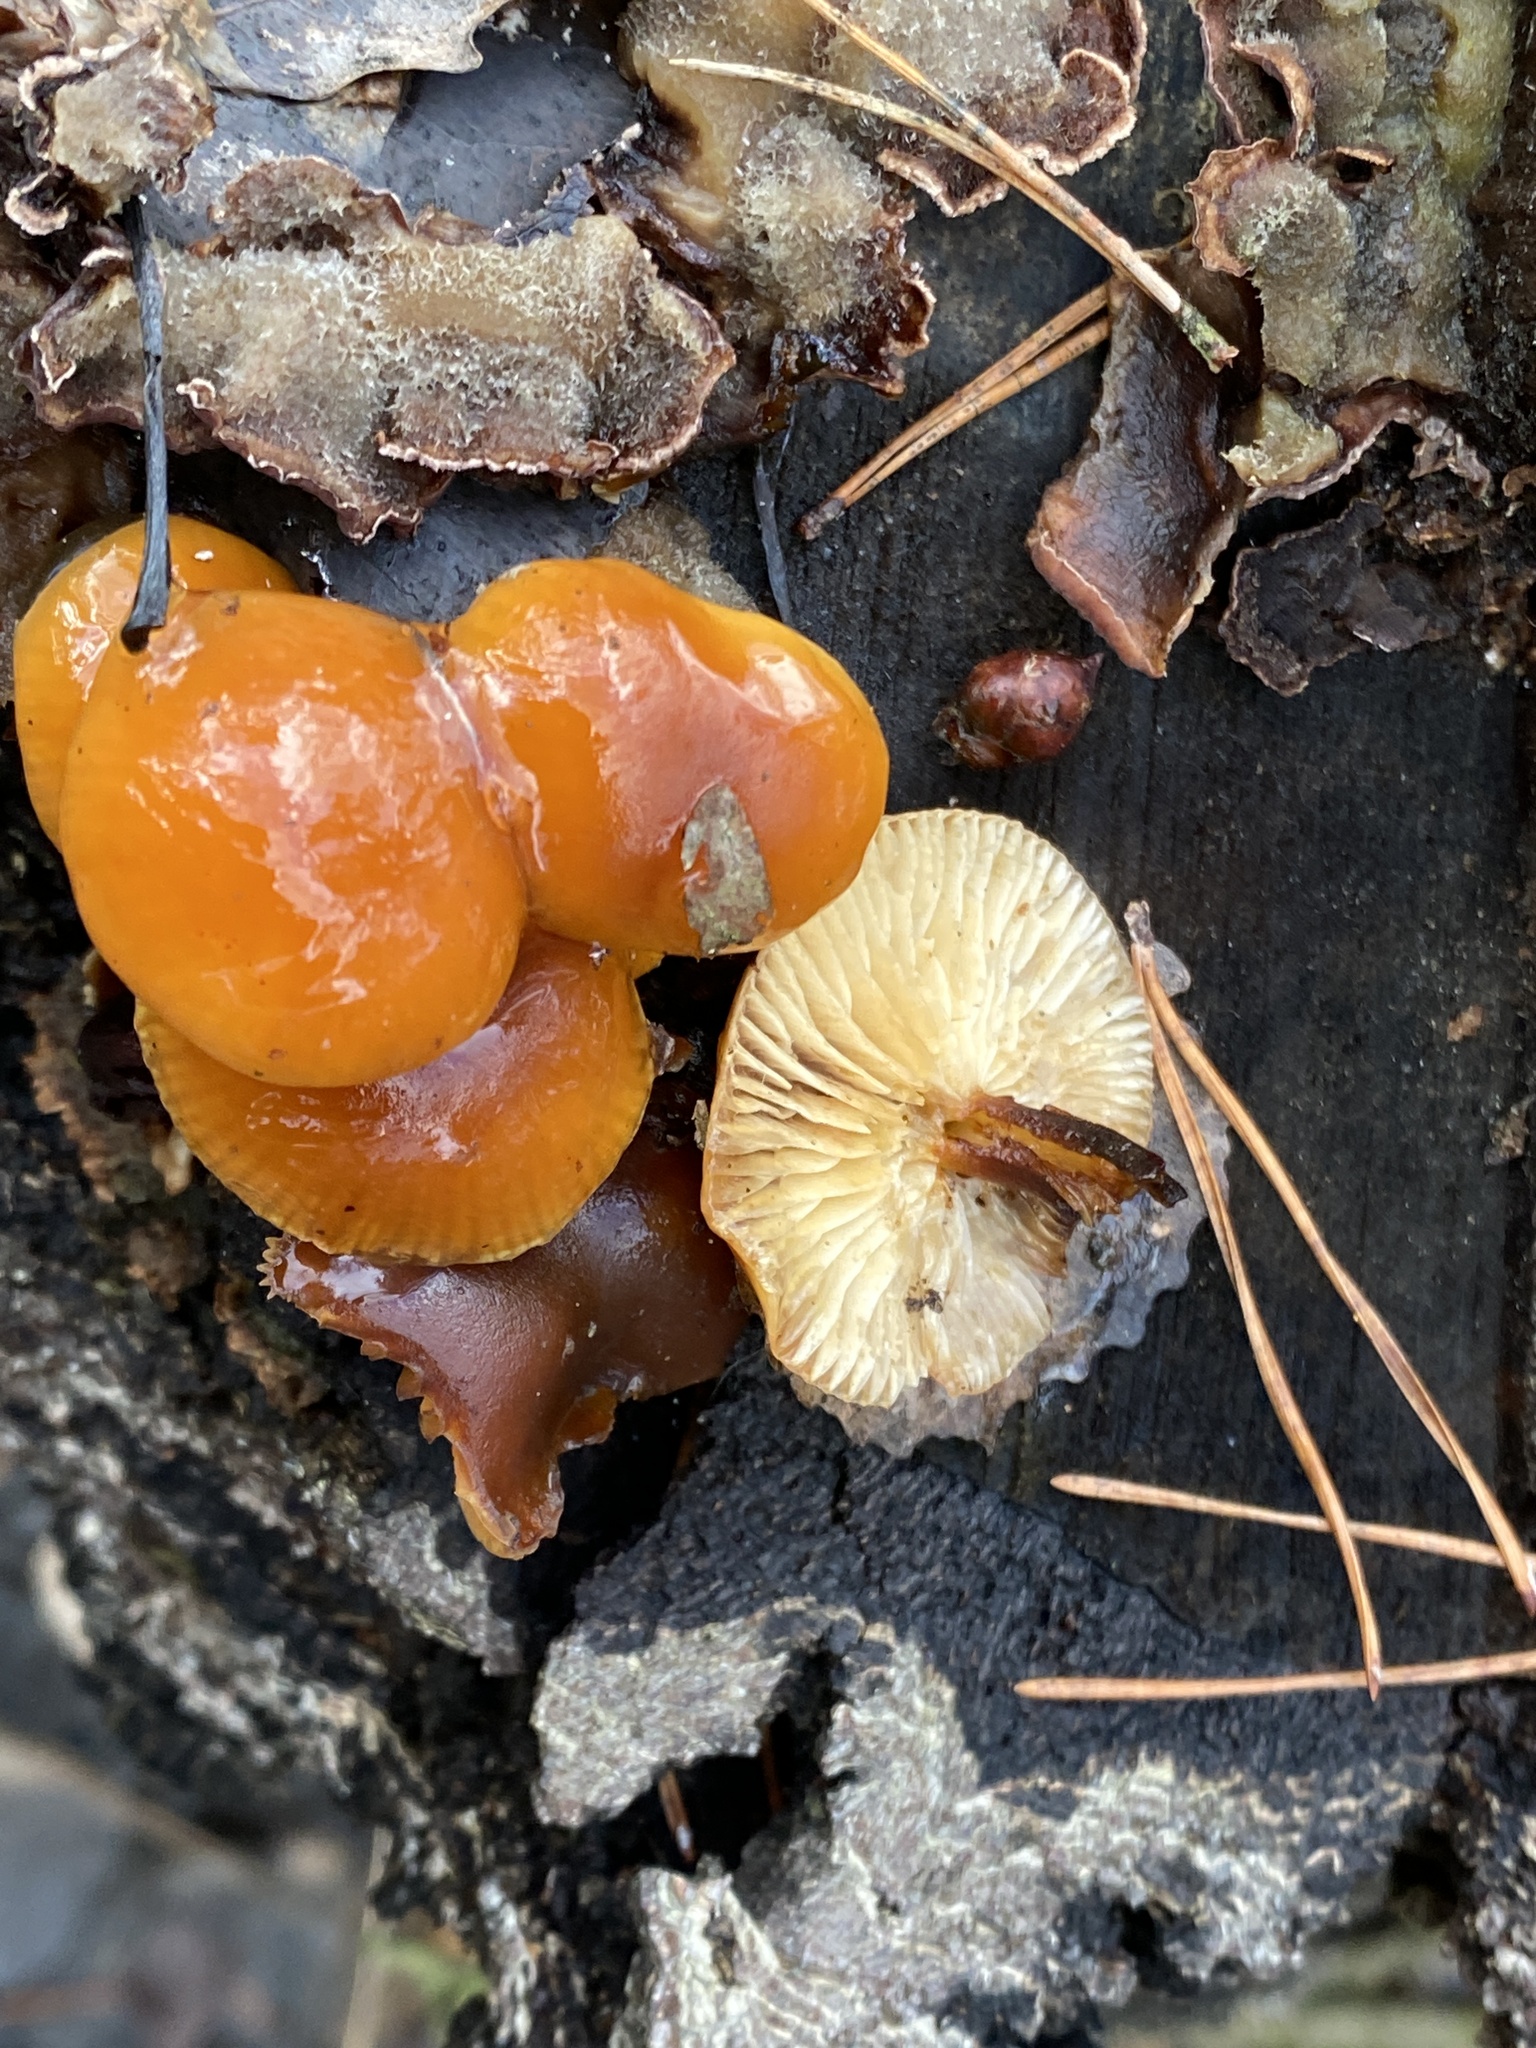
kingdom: Fungi
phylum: Basidiomycota
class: Agaricomycetes
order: Agaricales
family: Physalacriaceae
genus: Flammulina
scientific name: Flammulina velutipes
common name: Velvet shank
